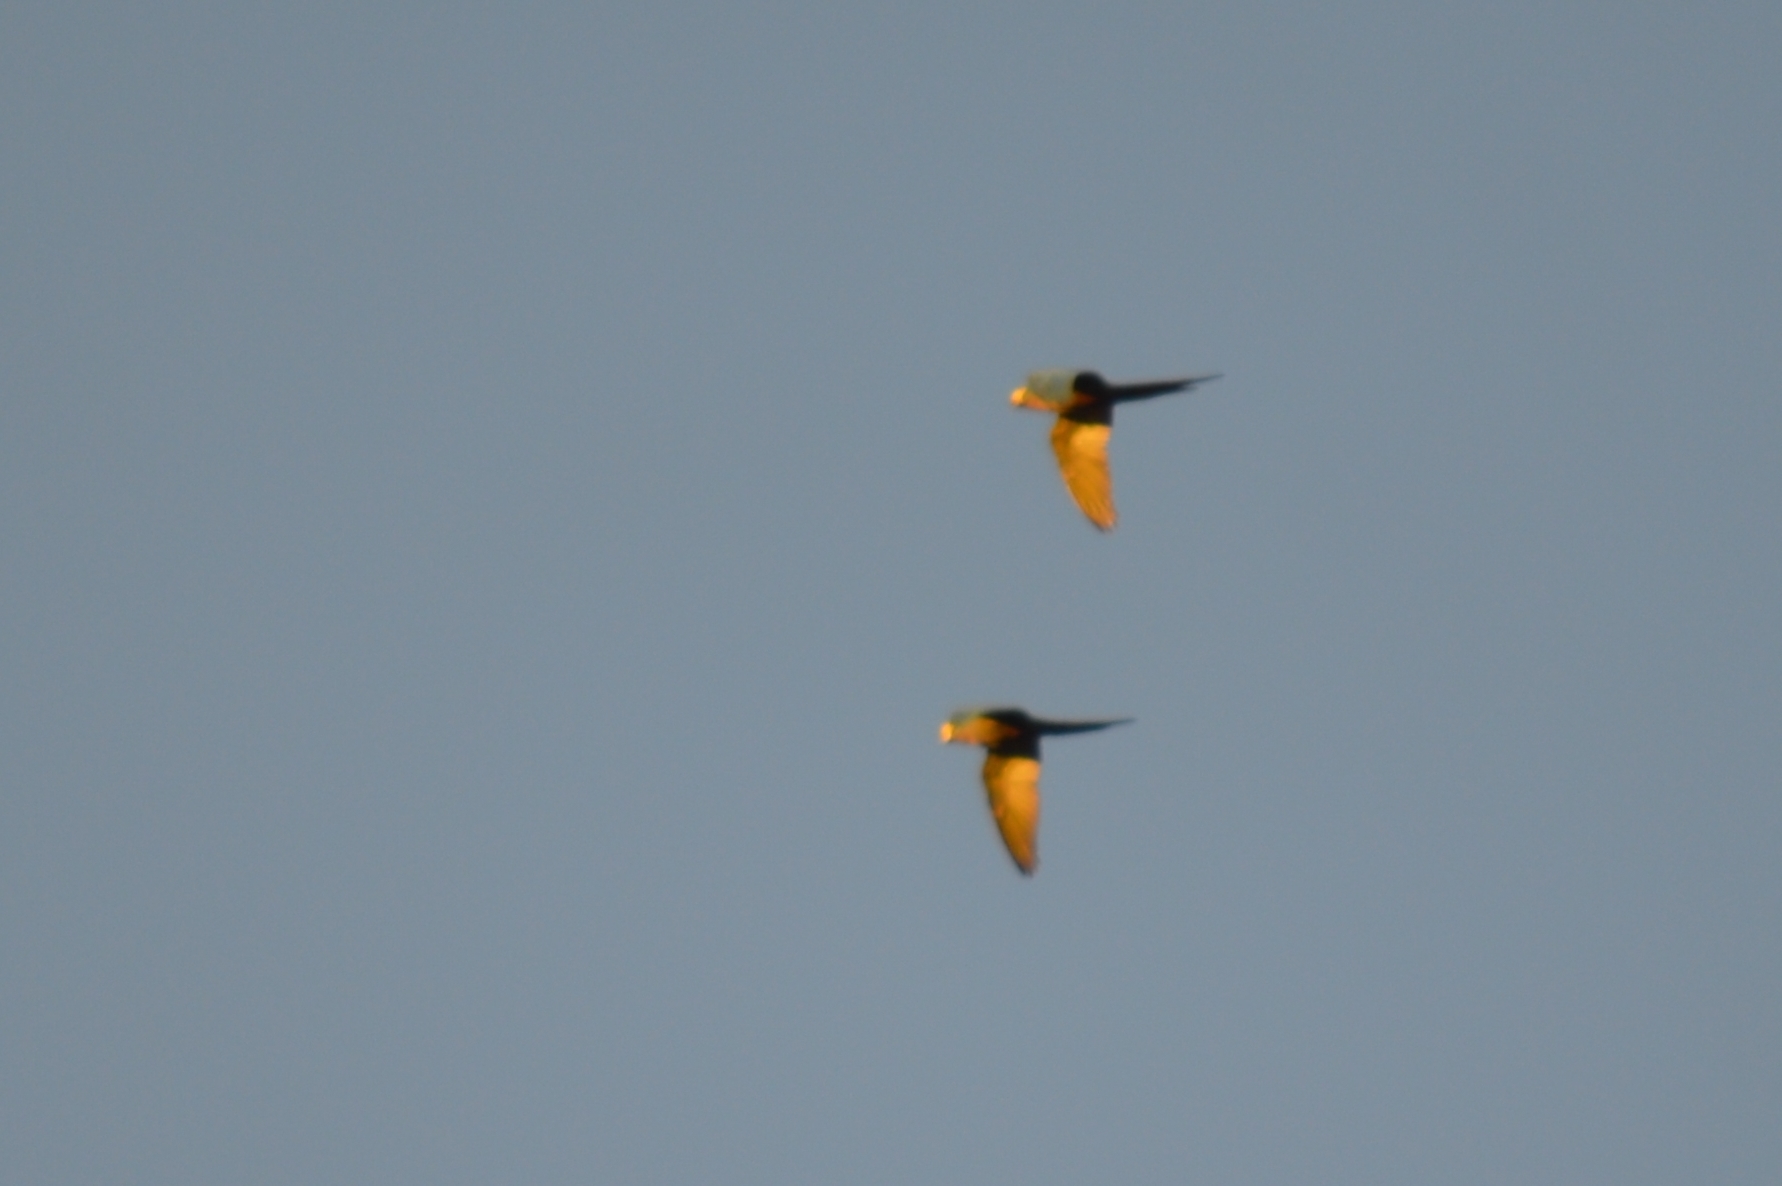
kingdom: Animalia
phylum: Chordata
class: Aves
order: Psittaciformes
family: Psittacidae
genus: Orthopsittaca
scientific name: Orthopsittaca manilata
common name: Red-bellied macaw
